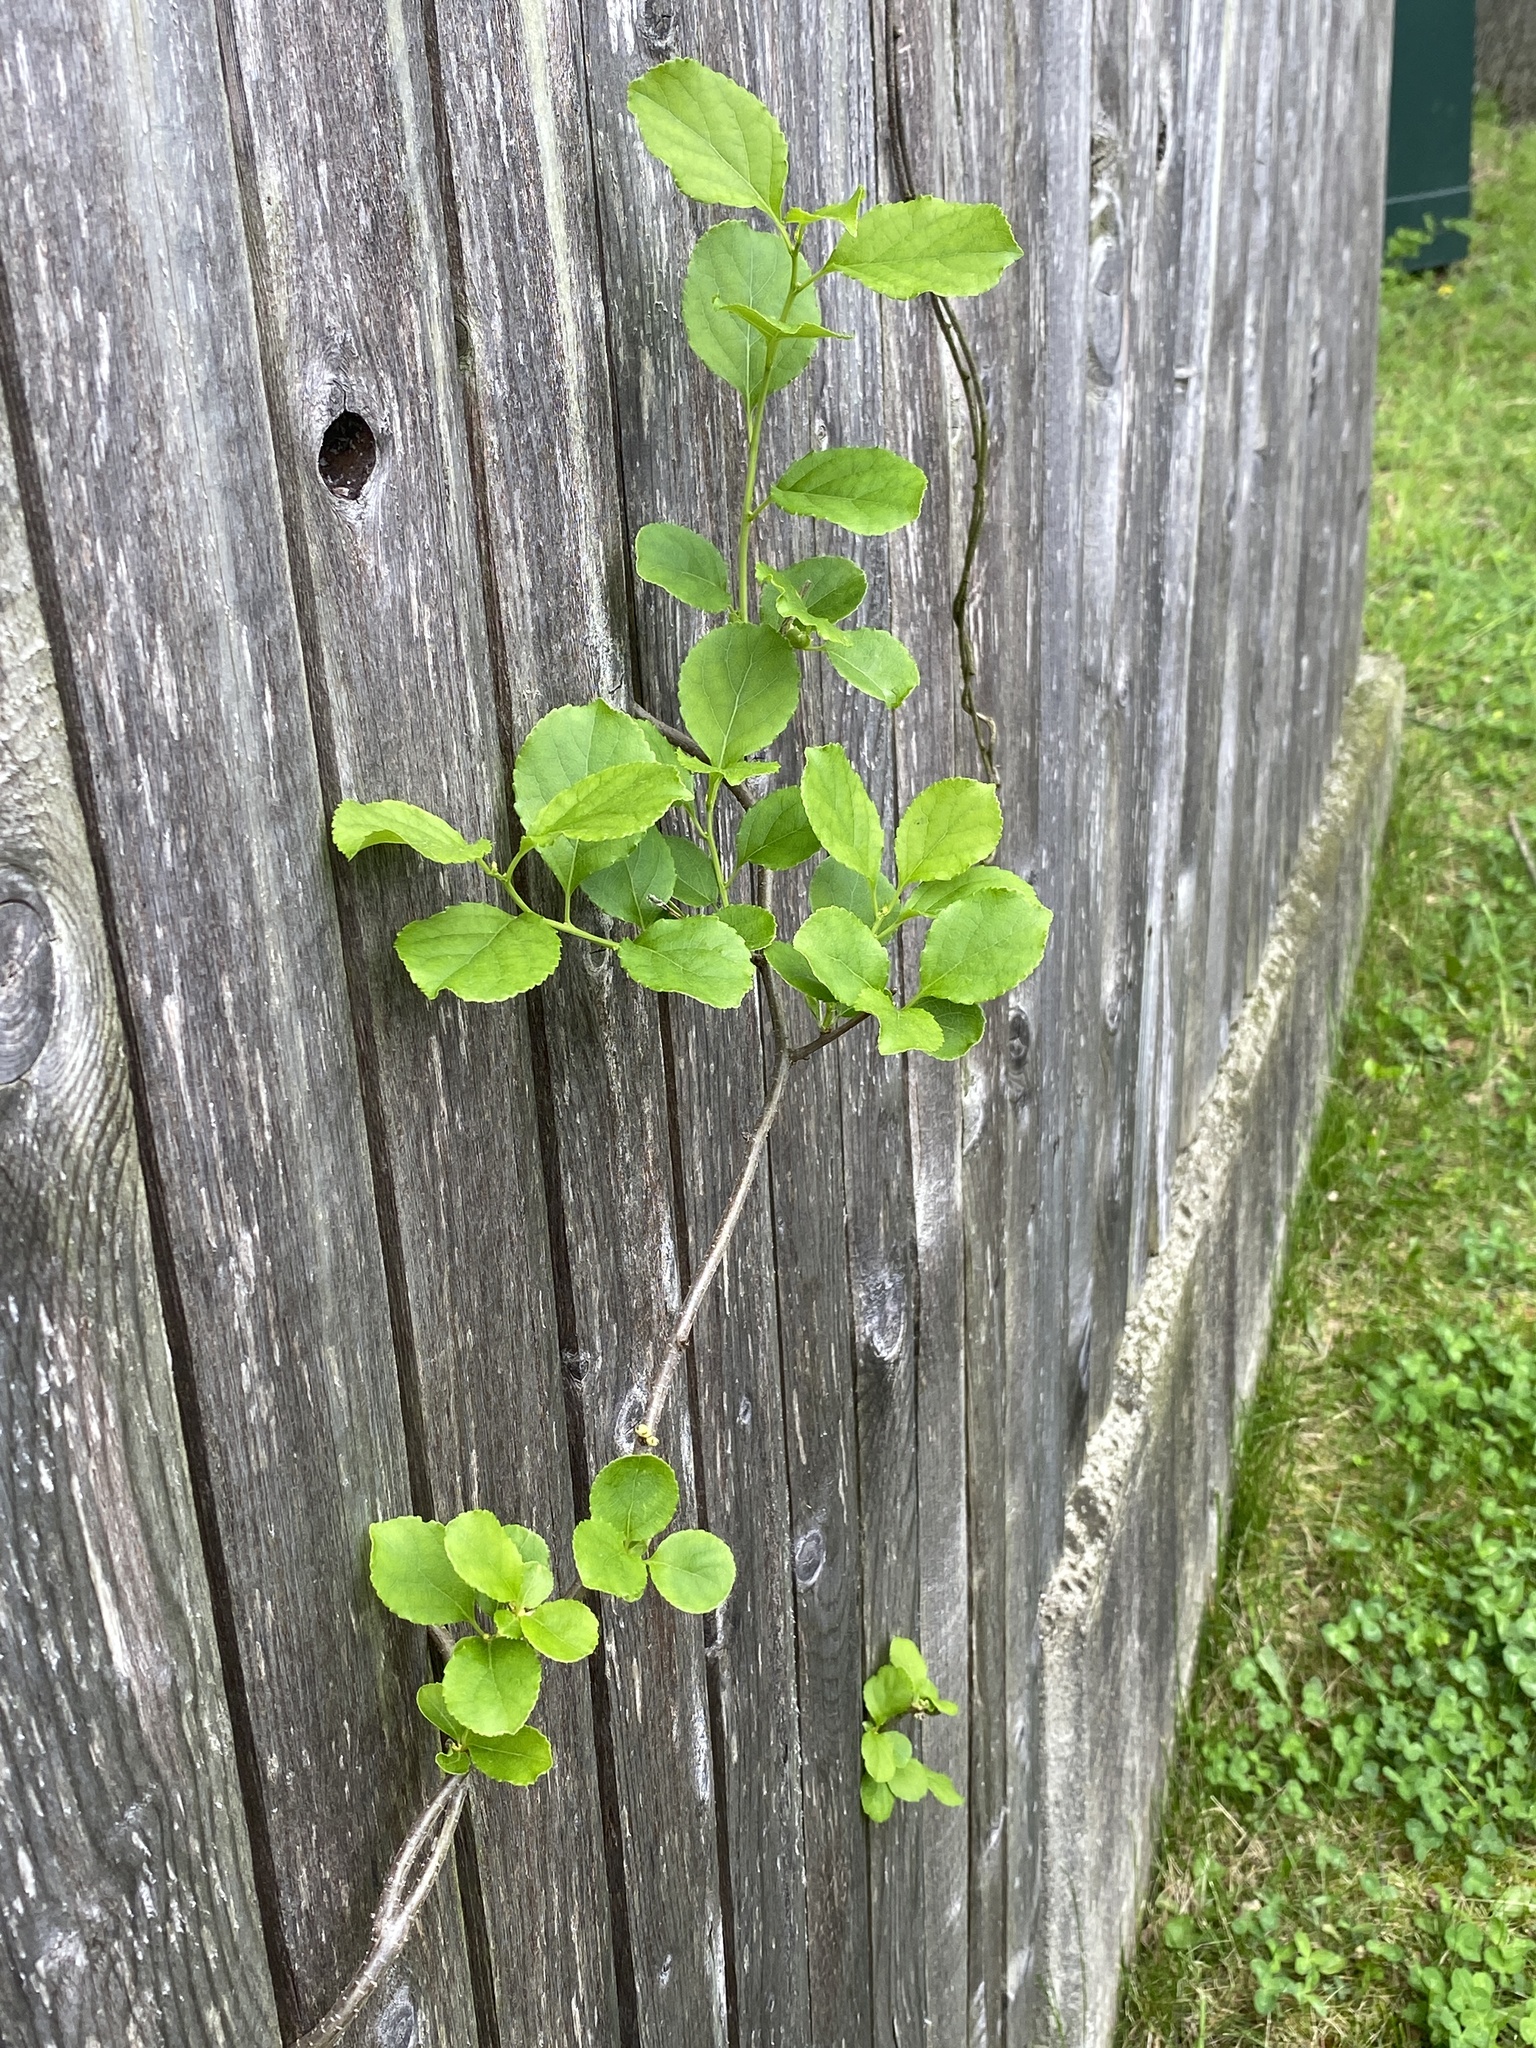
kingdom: Plantae
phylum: Tracheophyta
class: Magnoliopsida
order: Celastrales
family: Celastraceae
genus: Celastrus
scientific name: Celastrus orbiculatus
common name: Oriental bittersweet
